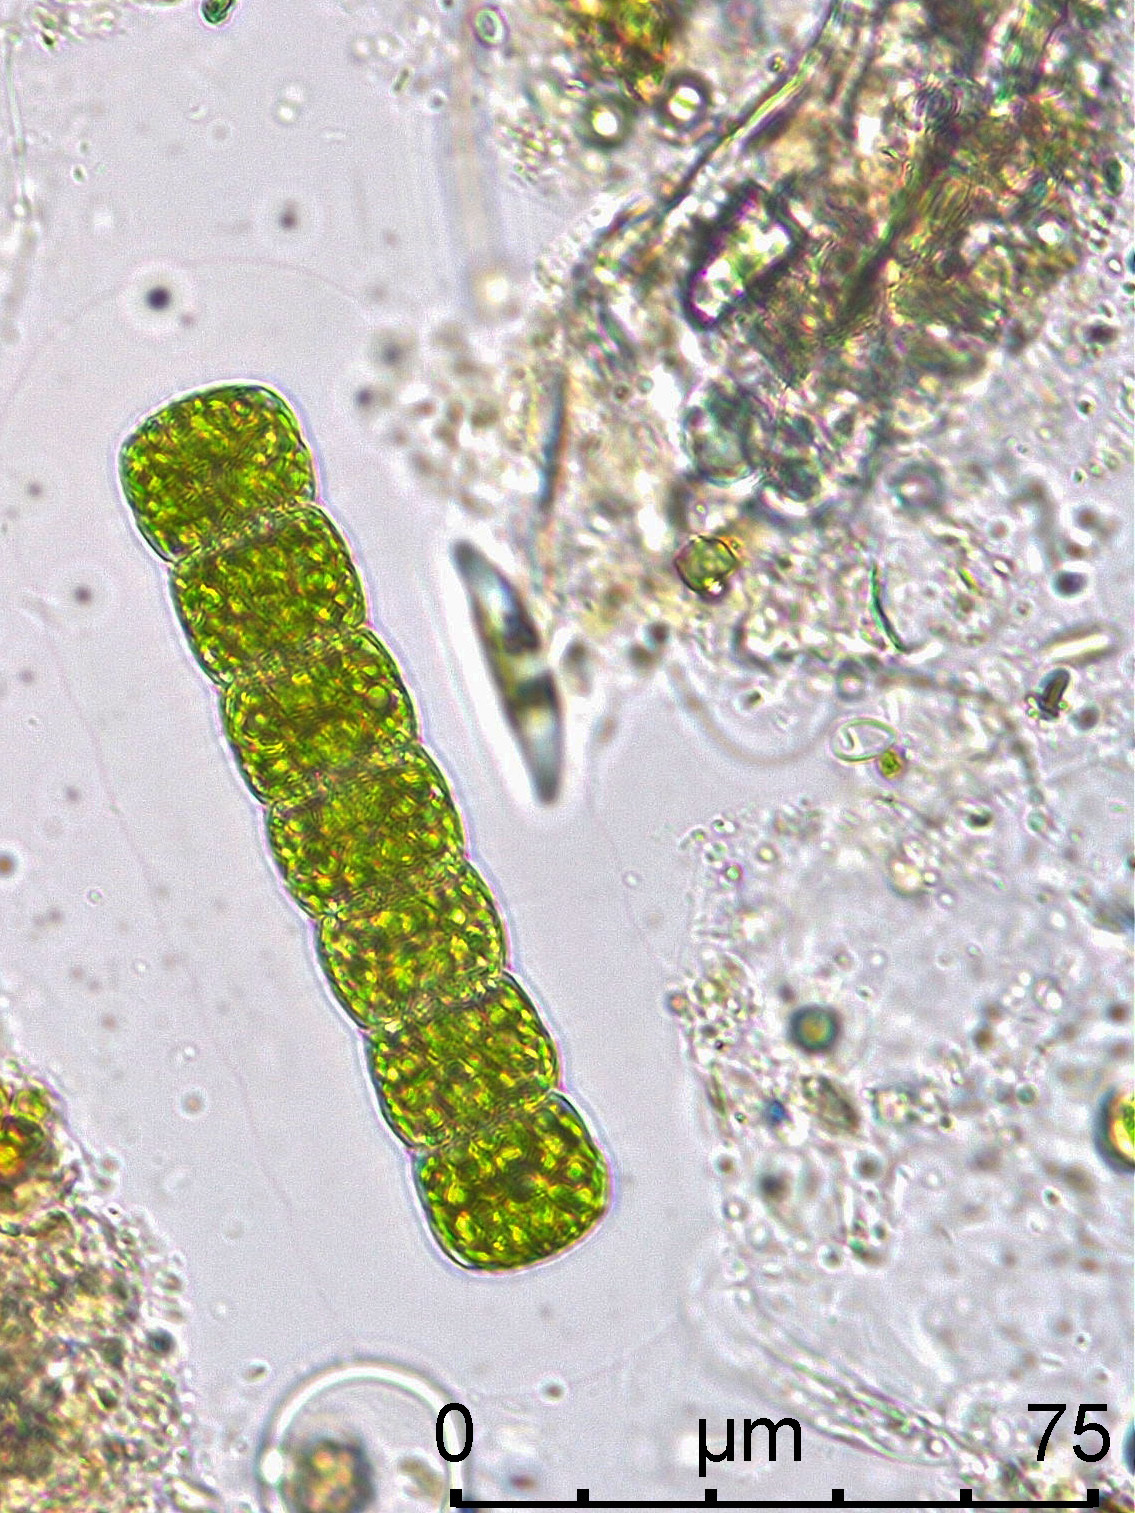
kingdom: Plantae
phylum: Charophyta
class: Conjugatophyceae
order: Desmidiales
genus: Hyalotheca
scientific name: Hyalotheca dissiliens
